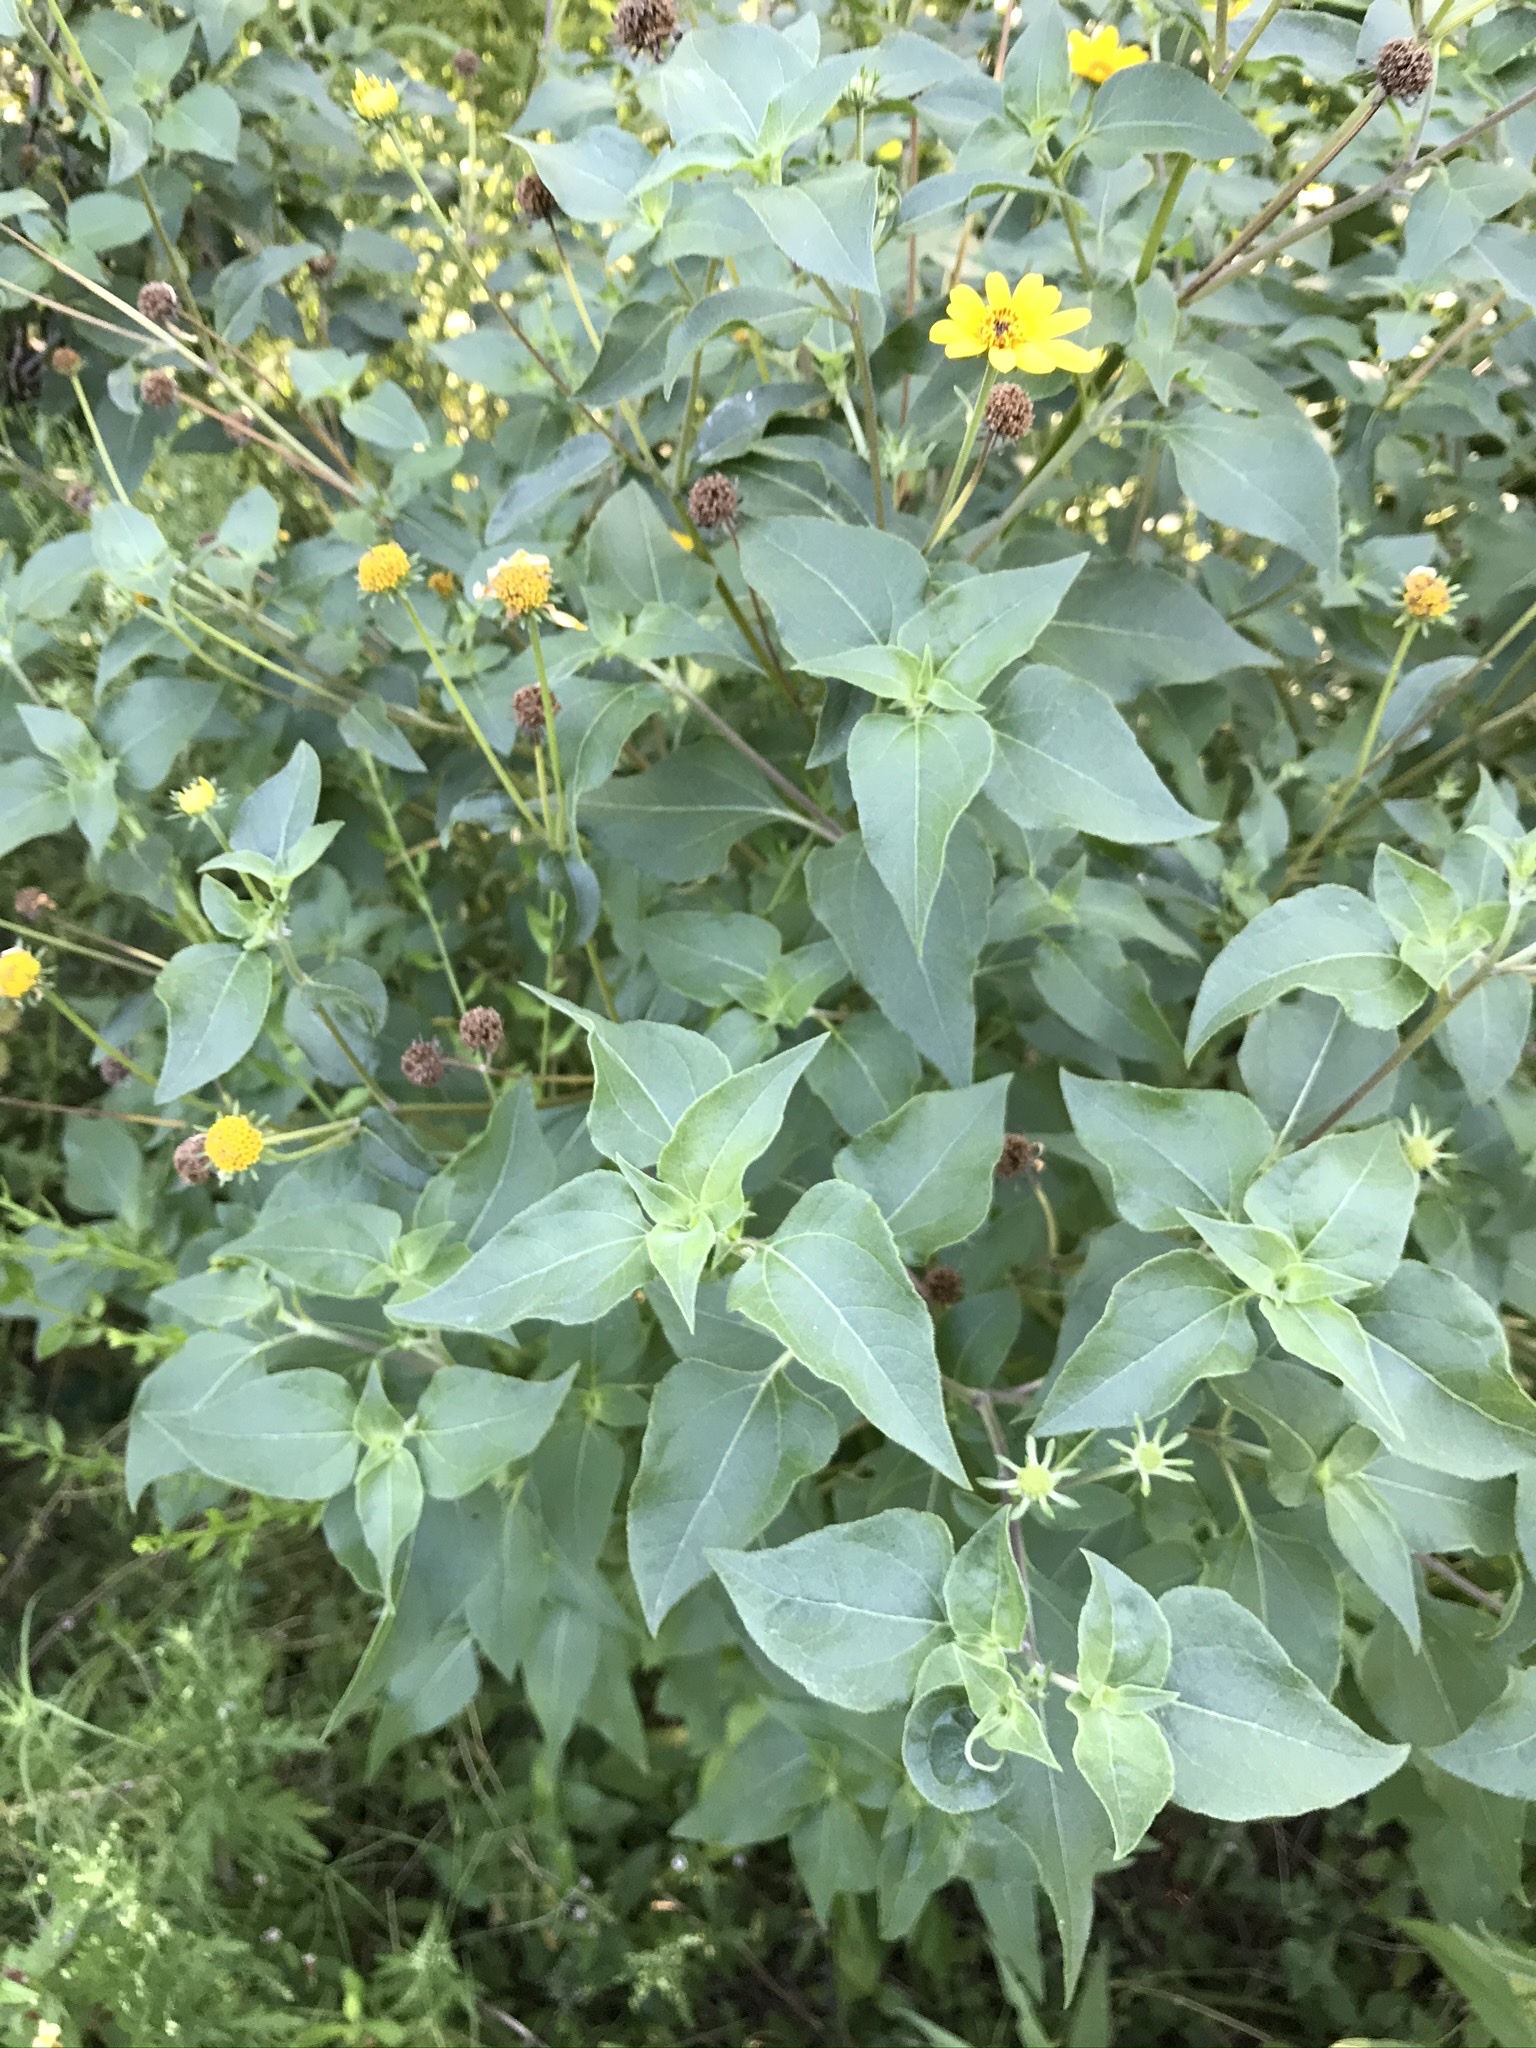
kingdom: Plantae
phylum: Tracheophyta
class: Magnoliopsida
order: Asterales
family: Asteraceae
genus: Viguiera
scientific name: Viguiera dentata
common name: Toothleaf
